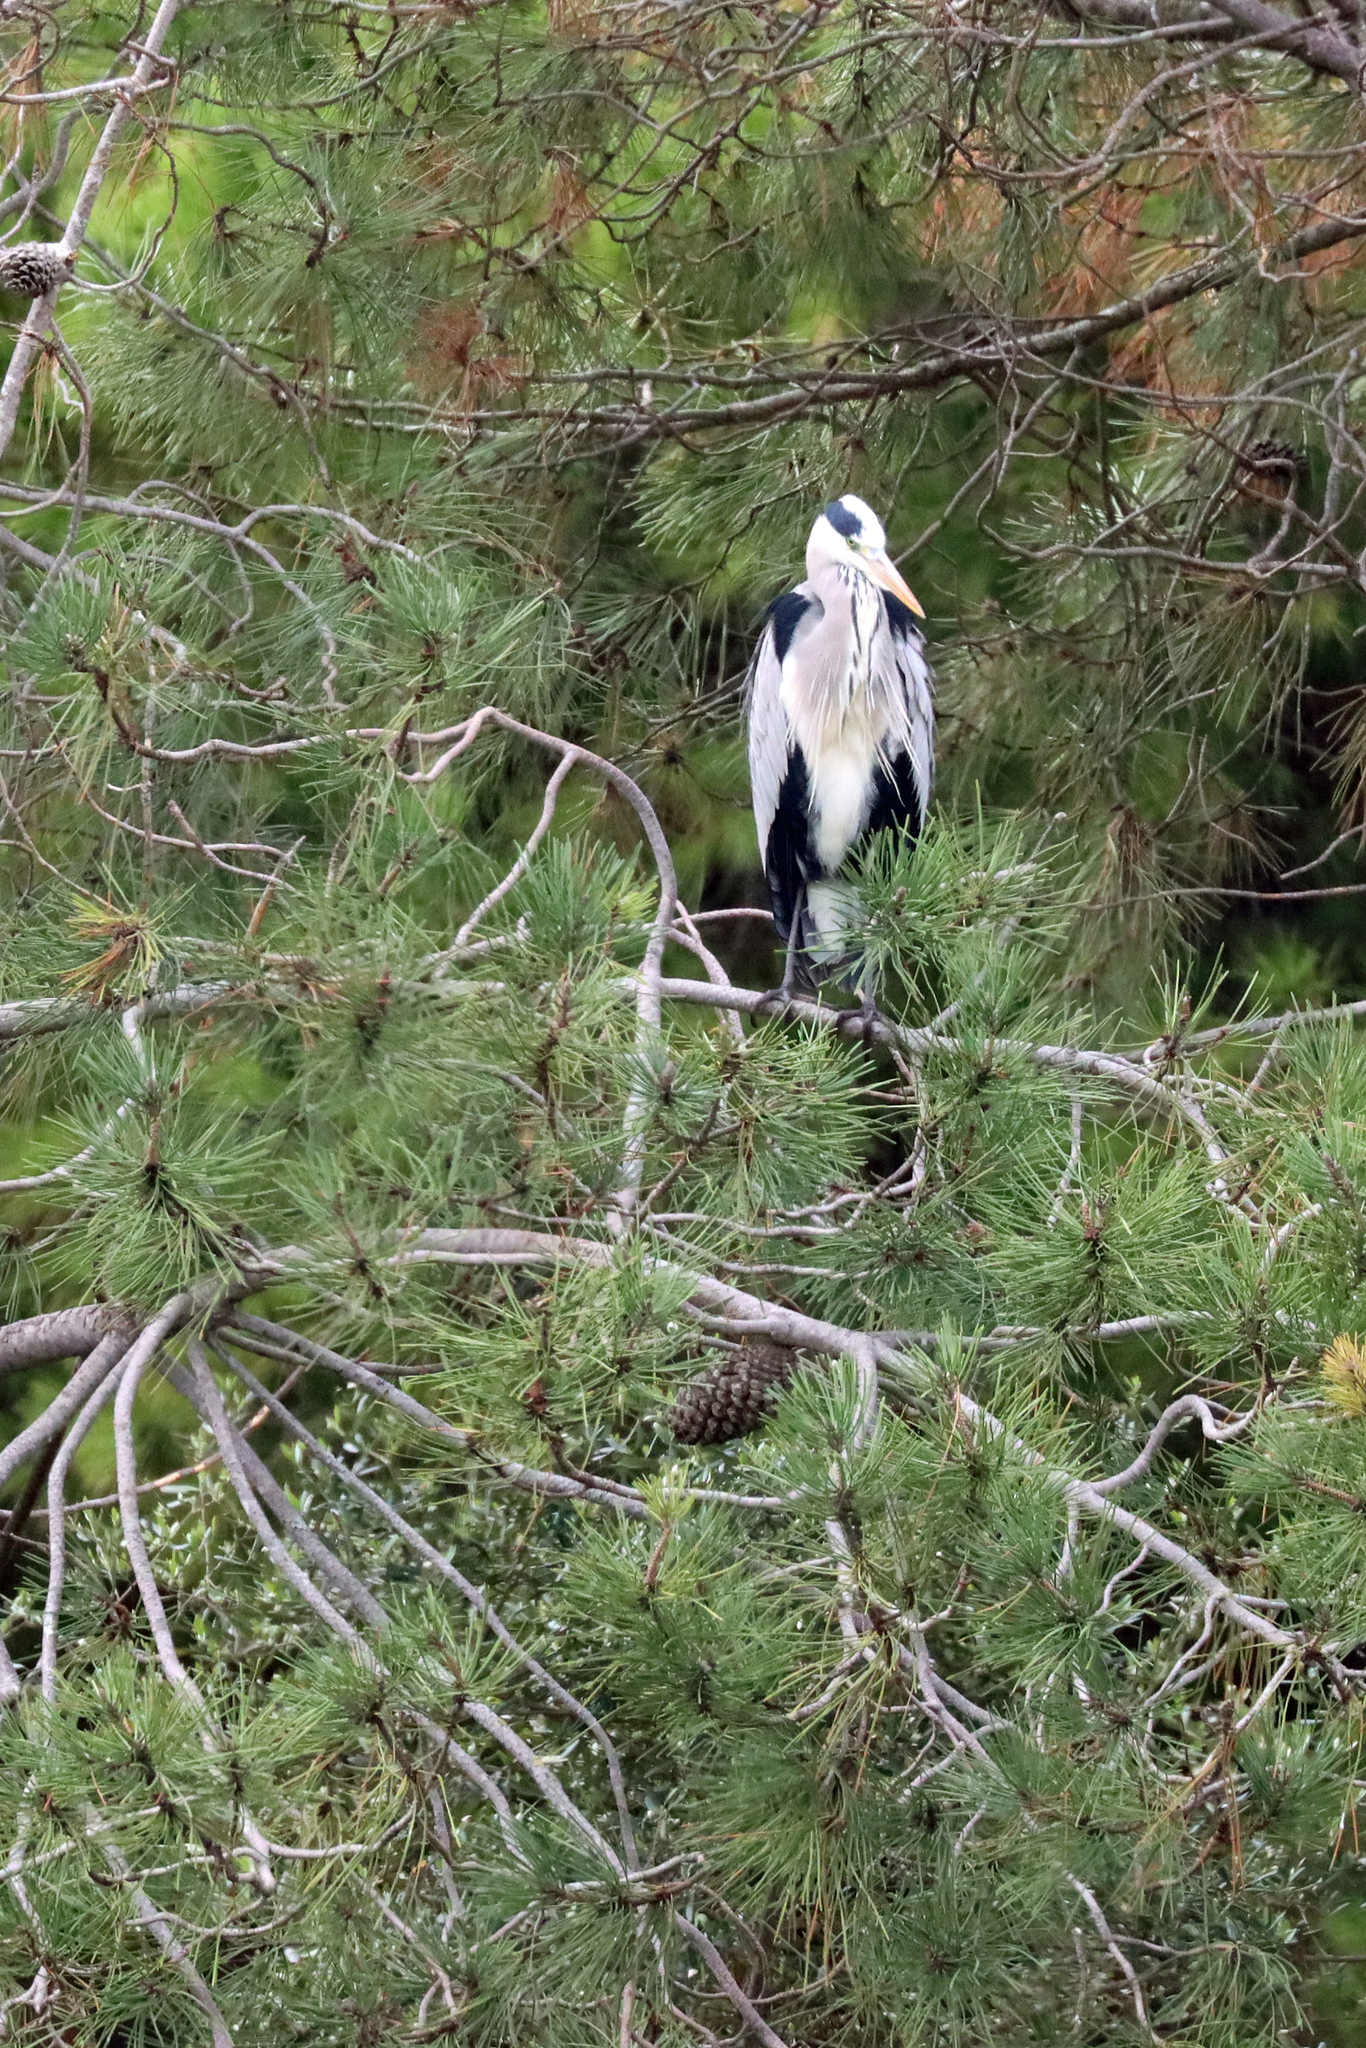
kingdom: Animalia
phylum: Chordata
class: Aves
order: Pelecaniformes
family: Ardeidae
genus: Ardea
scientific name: Ardea cinerea
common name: Grey heron
